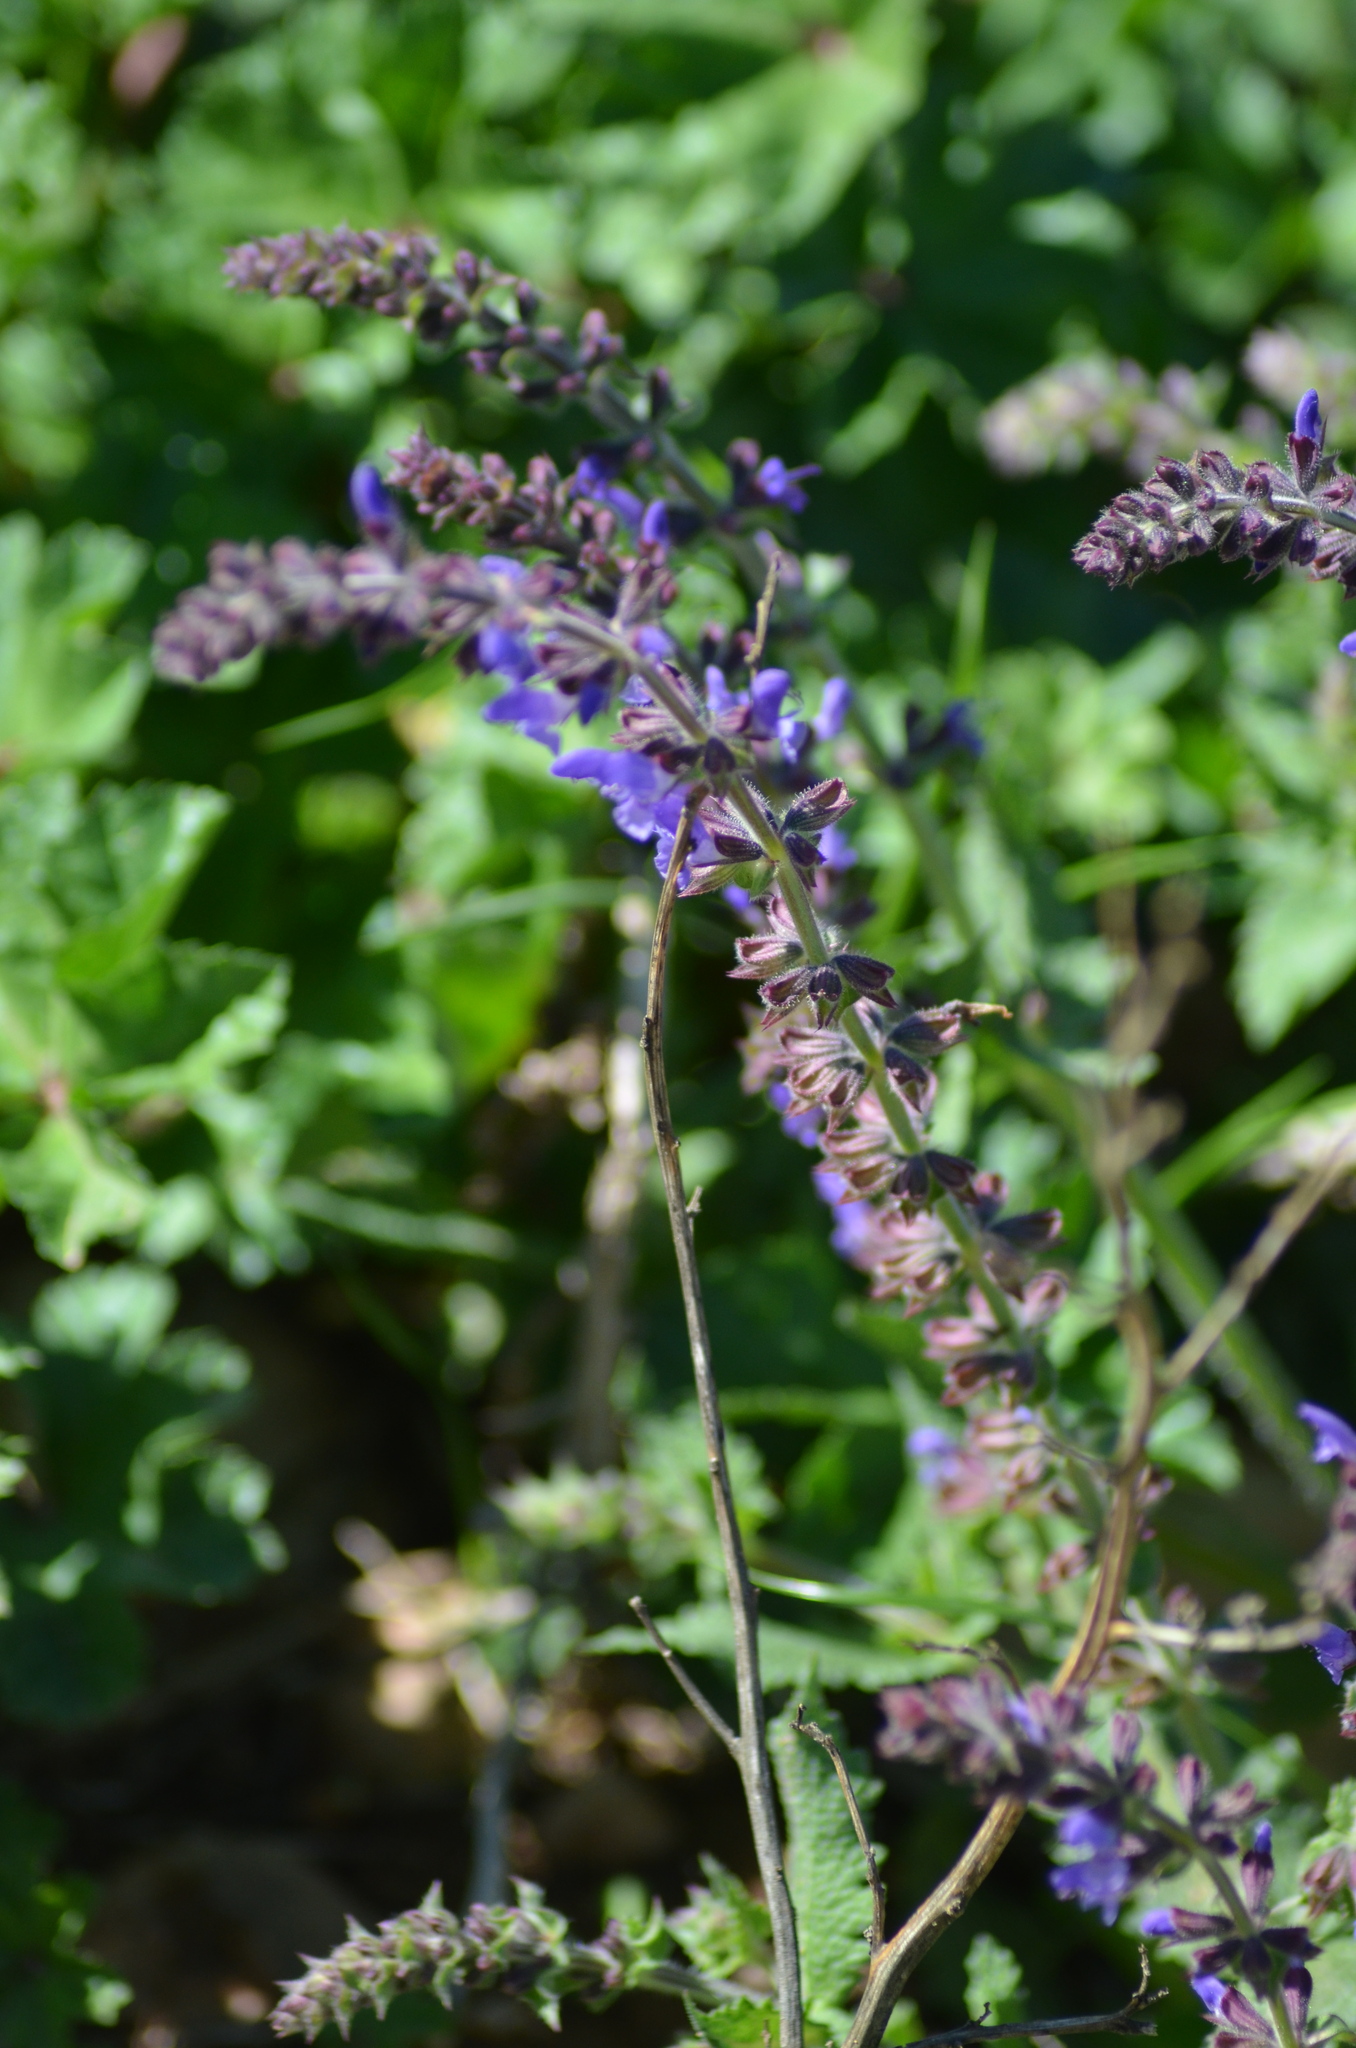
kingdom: Plantae
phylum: Tracheophyta
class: Magnoliopsida
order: Lamiales
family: Lamiaceae
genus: Salvia
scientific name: Salvia verbenaca
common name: Wild clary
